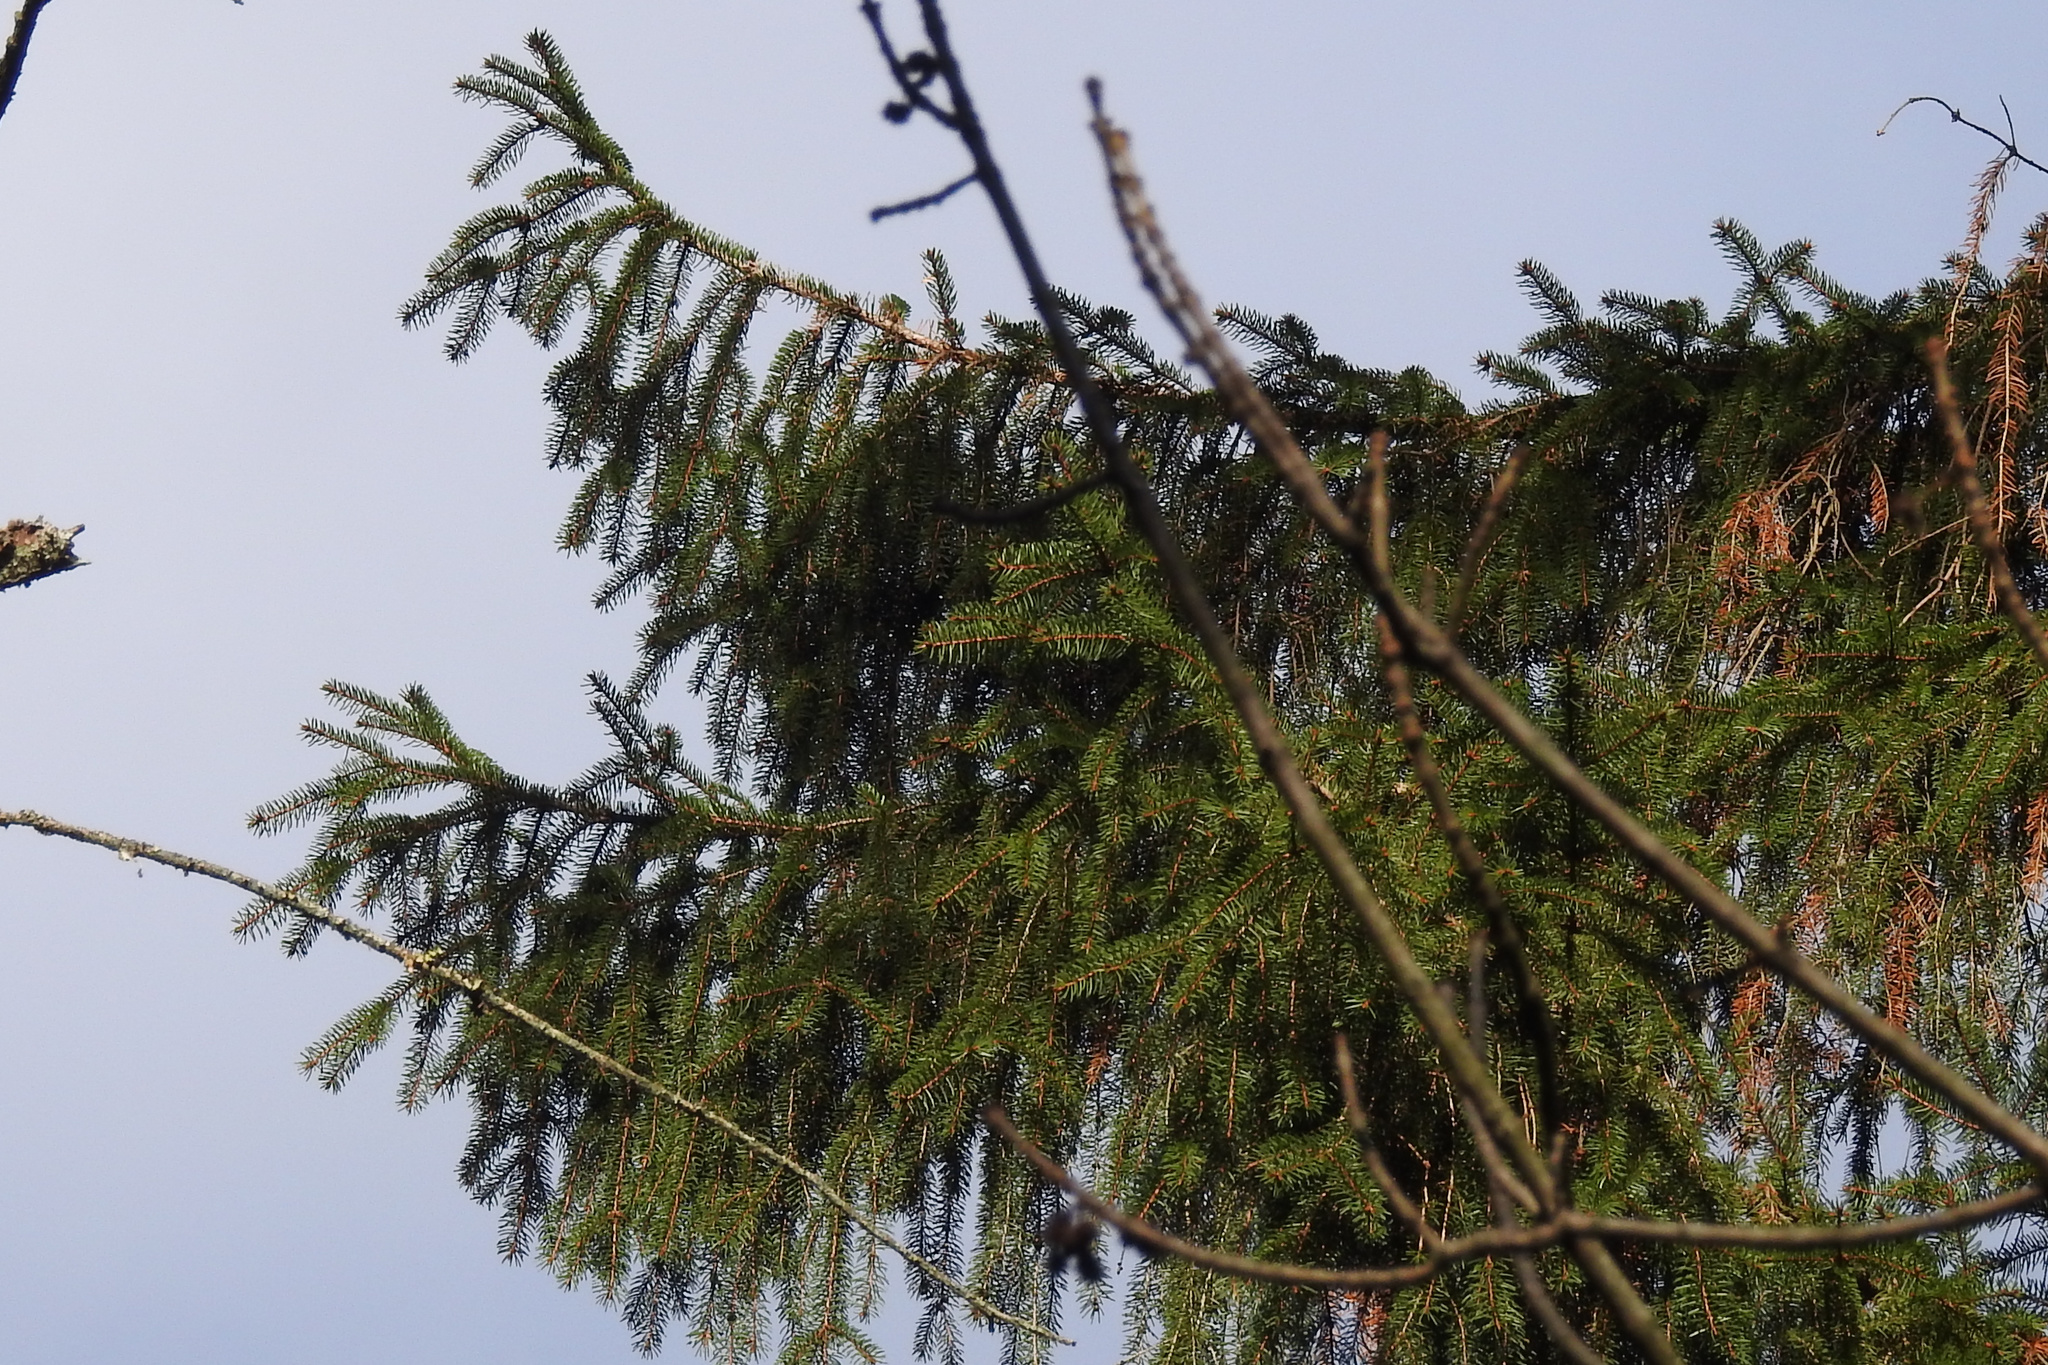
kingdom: Plantae
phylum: Tracheophyta
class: Pinopsida
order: Pinales
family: Pinaceae
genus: Picea
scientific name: Picea abies
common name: Norway spruce
